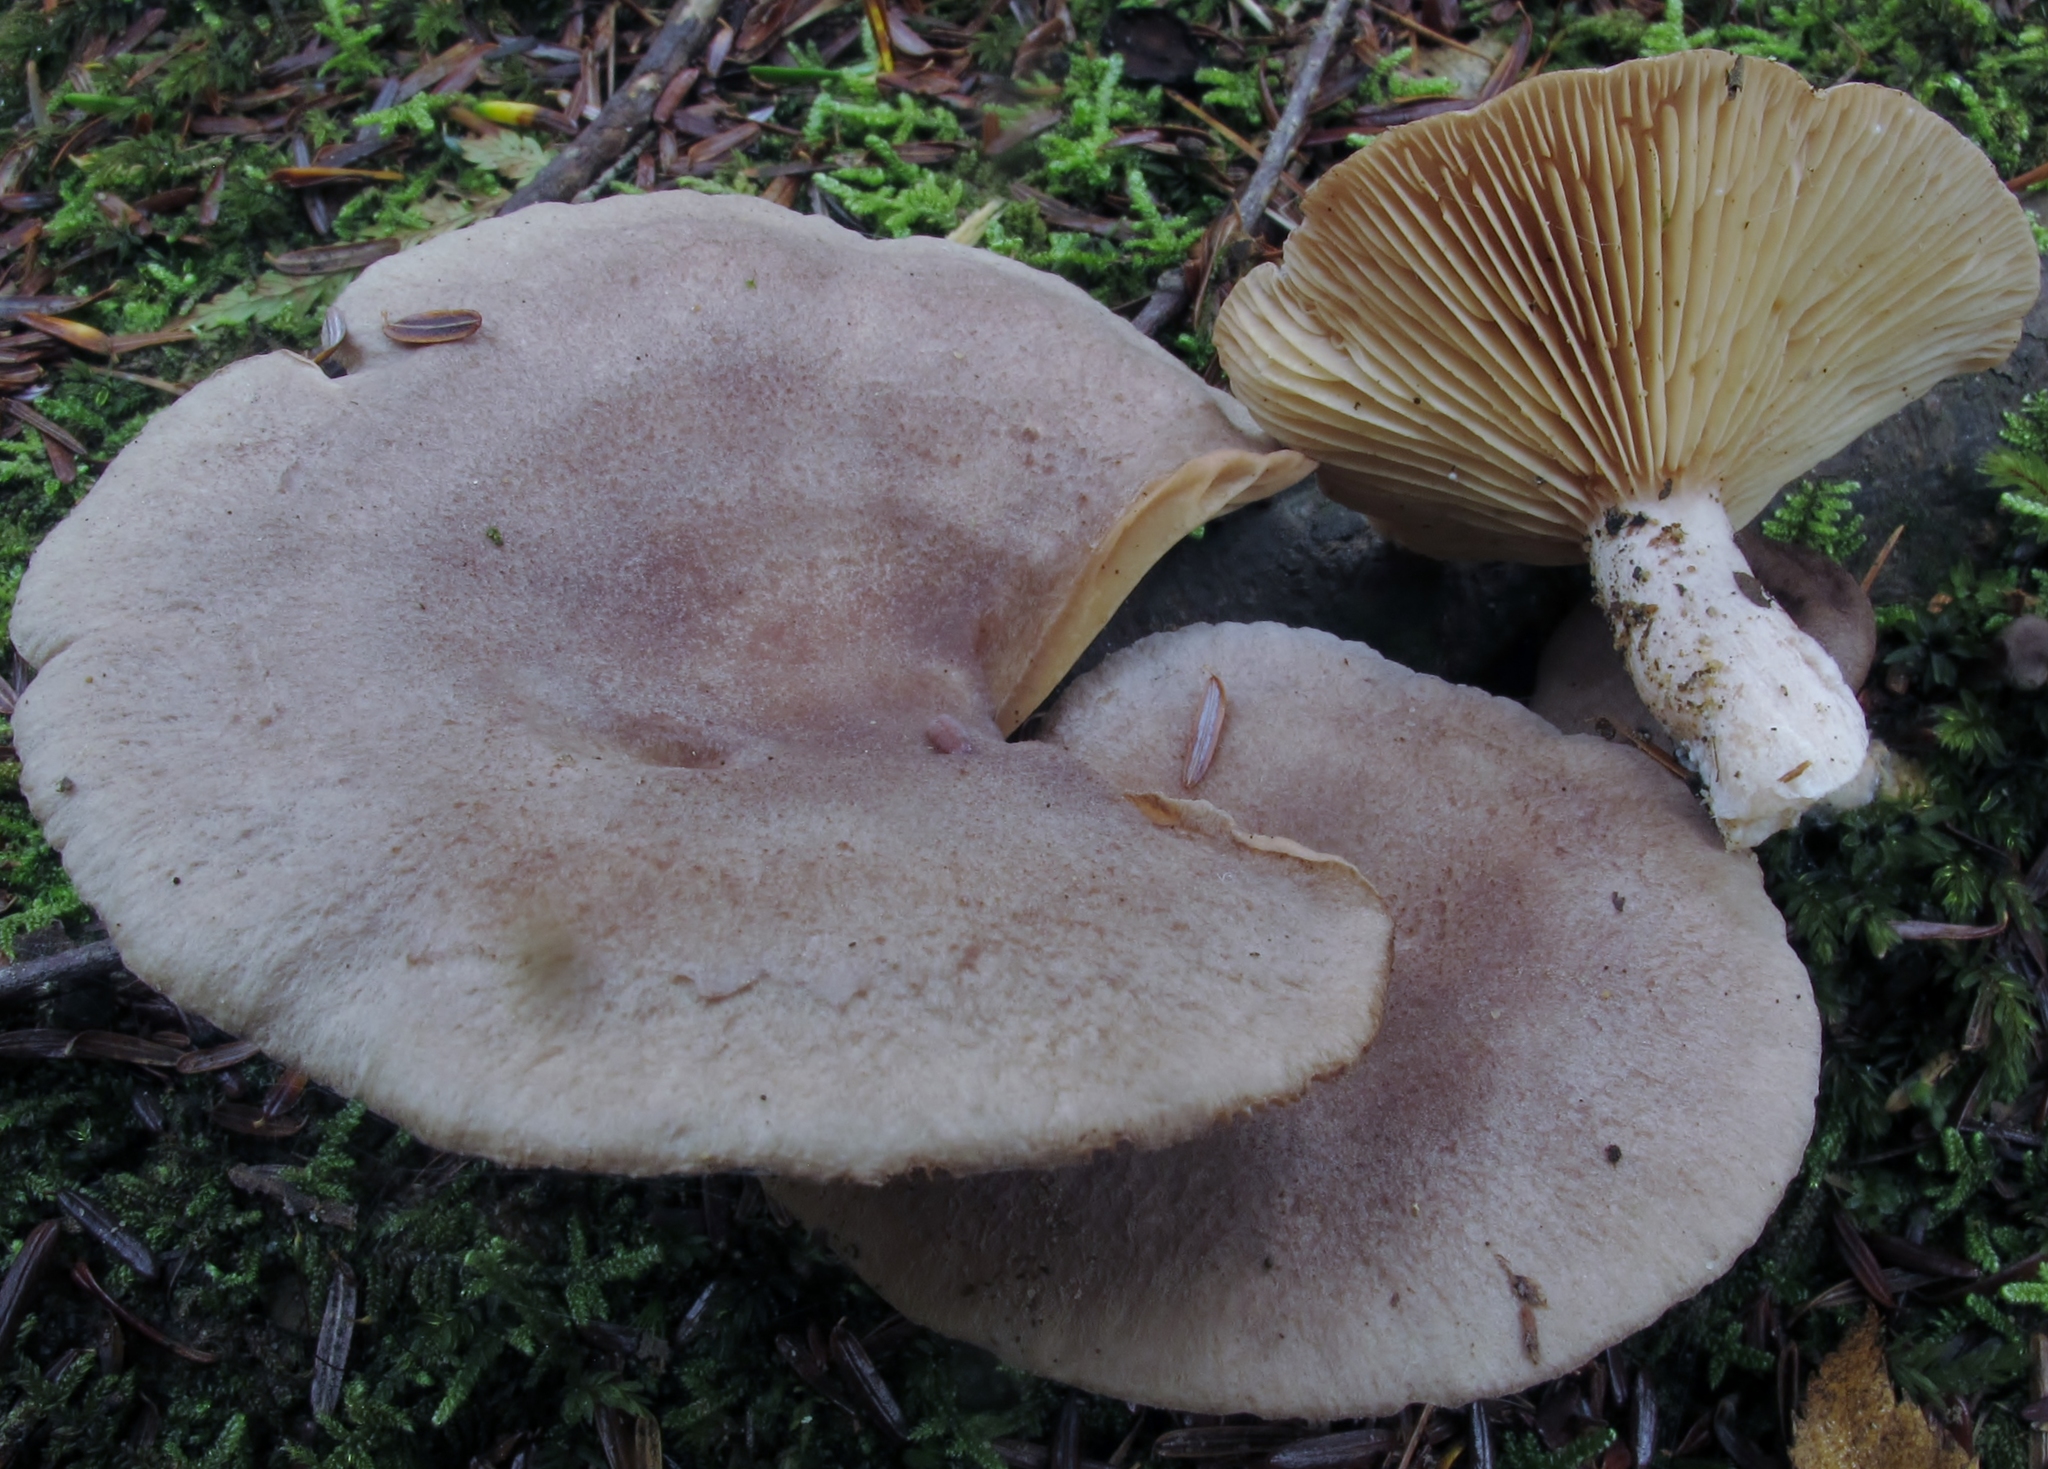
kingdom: Fungi
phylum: Basidiomycota
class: Agaricomycetes
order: Russulales
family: Russulaceae
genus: Lactarius
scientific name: Lactarius mammosus
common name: Pap milkcap
